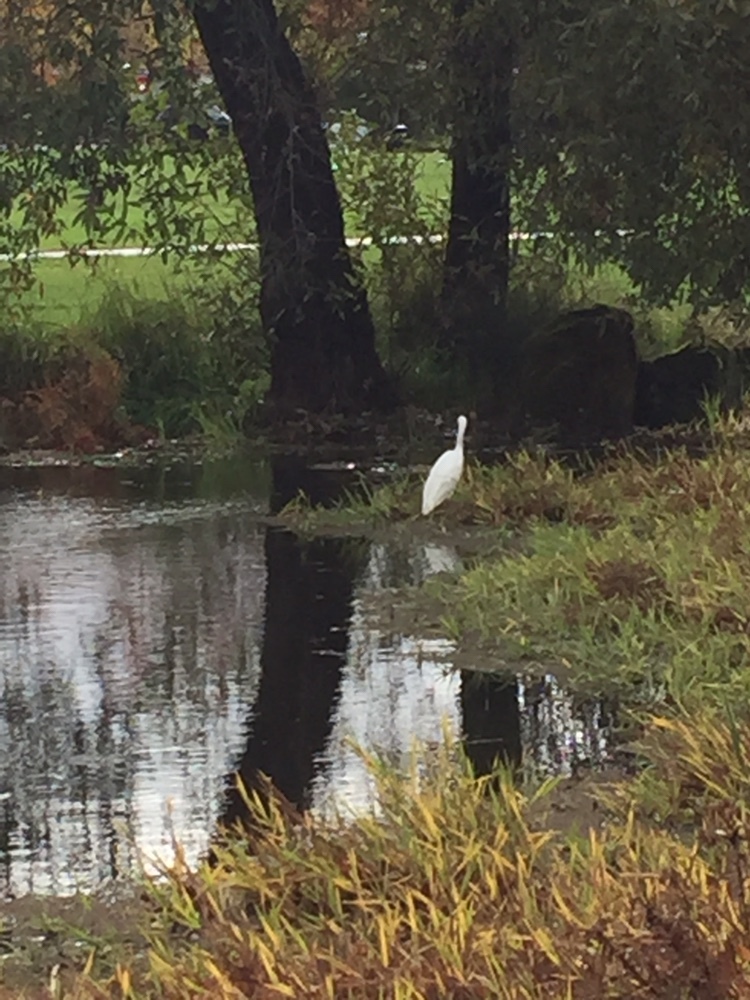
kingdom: Animalia
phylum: Chordata
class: Aves
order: Pelecaniformes
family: Ardeidae
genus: Egretta
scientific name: Egretta thula
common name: Snowy egret
